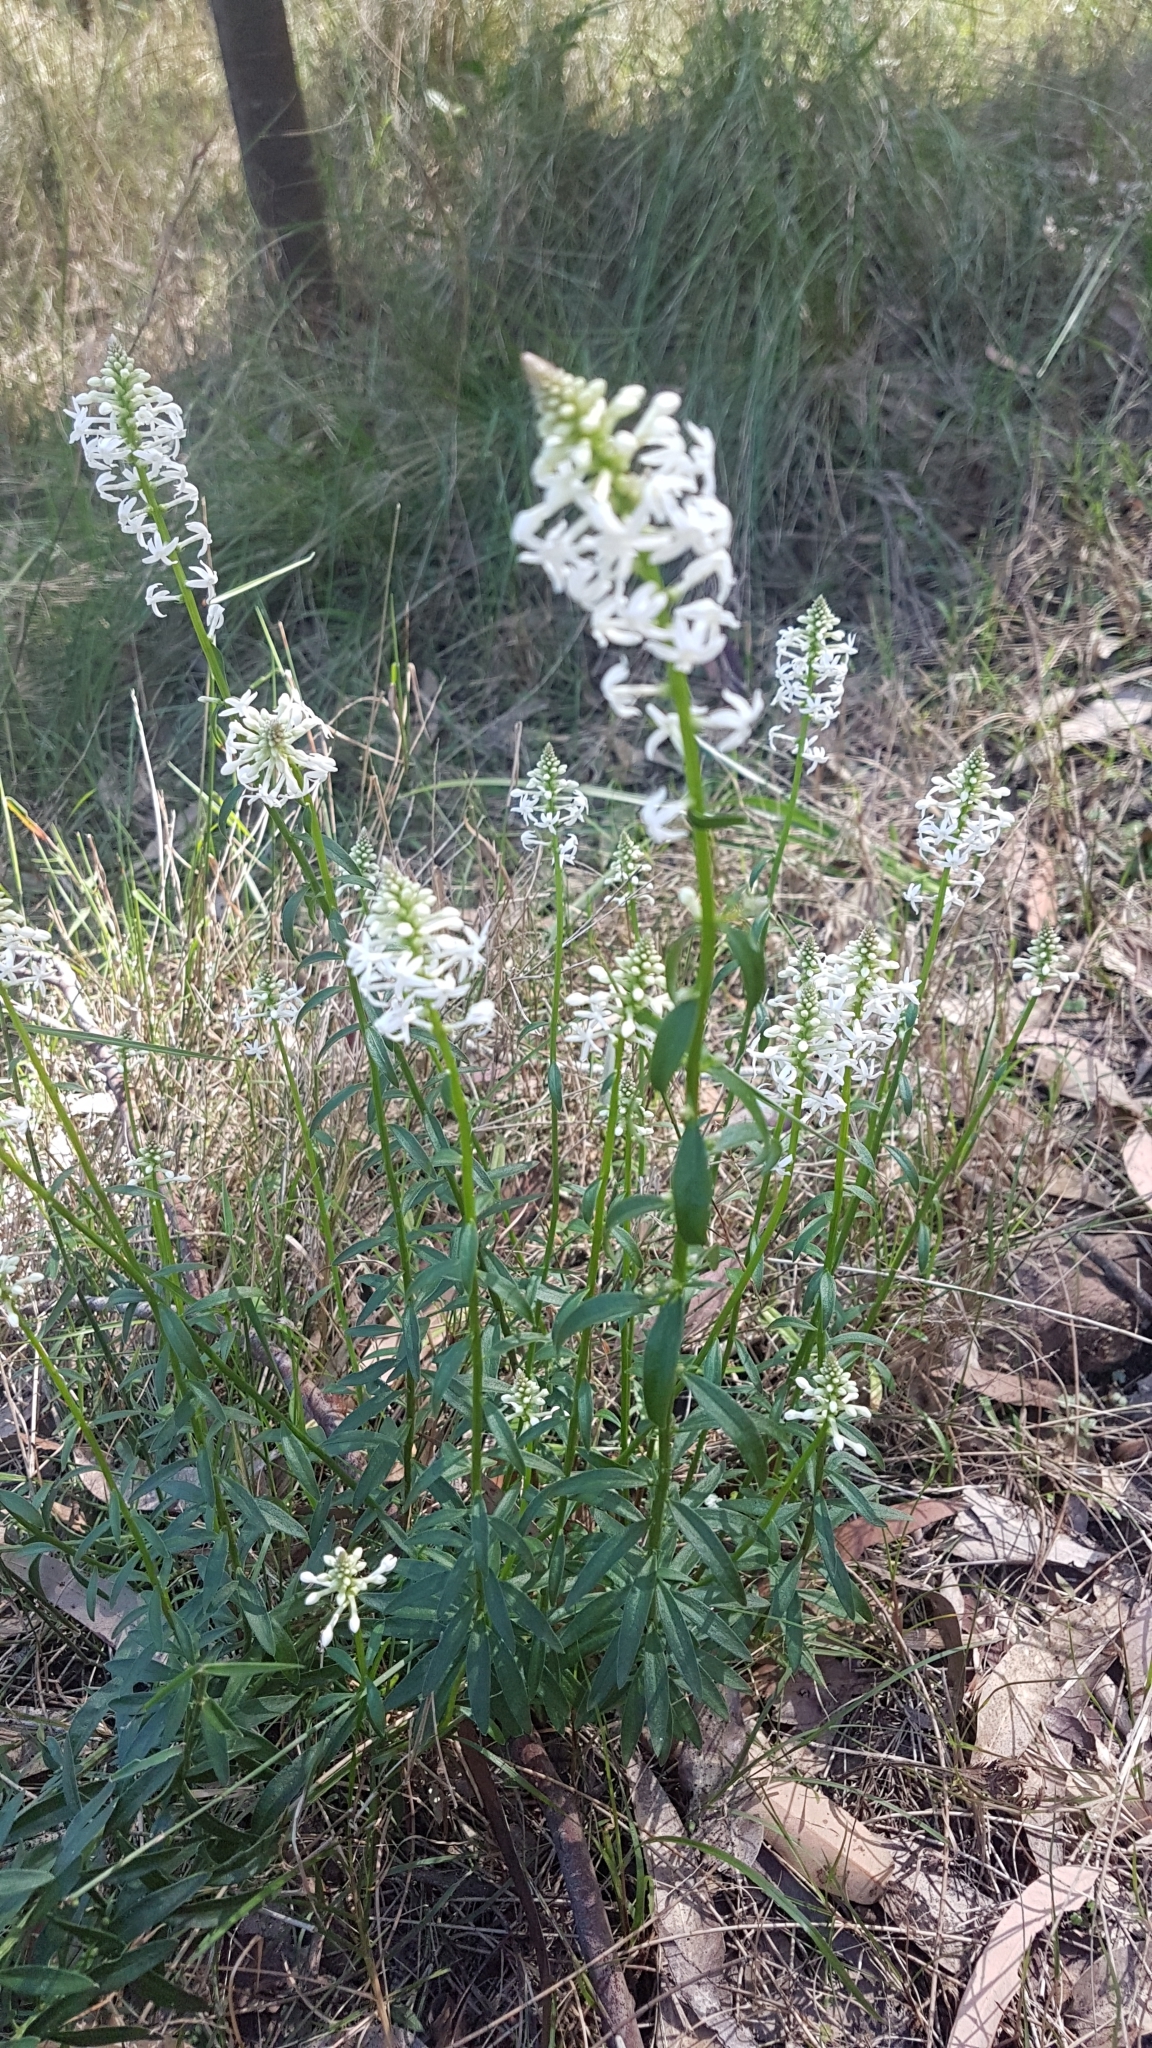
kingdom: Plantae
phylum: Tracheophyta
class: Magnoliopsida
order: Celastrales
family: Celastraceae
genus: Stackhousia
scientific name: Stackhousia monogyna
